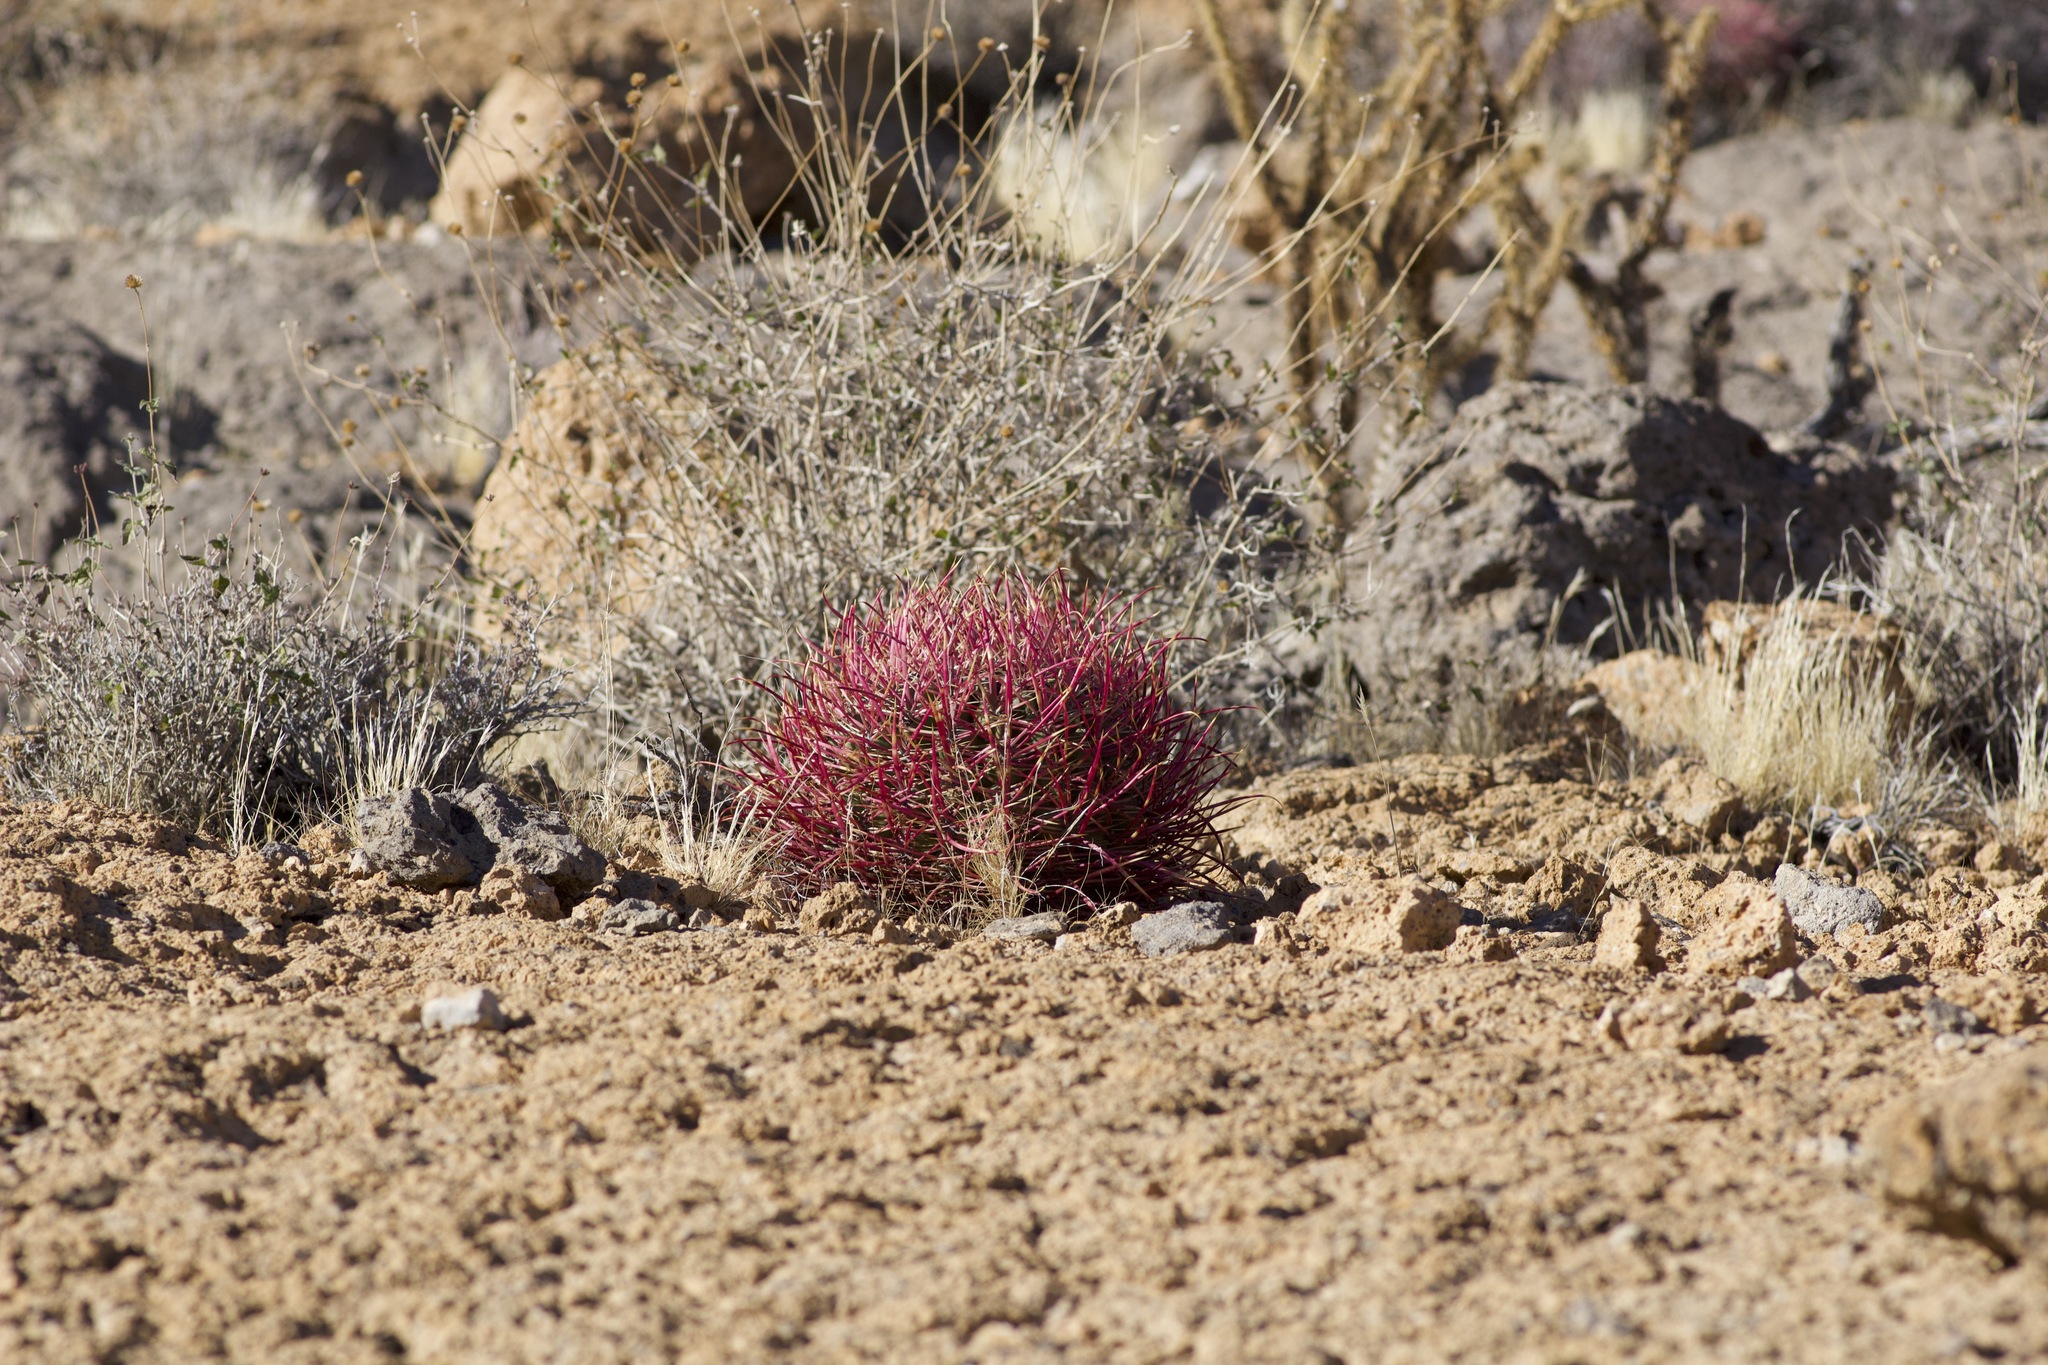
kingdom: Plantae
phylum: Tracheophyta
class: Magnoliopsida
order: Caryophyllales
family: Cactaceae
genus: Ferocactus
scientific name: Ferocactus cylindraceus
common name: California barrel cactus
